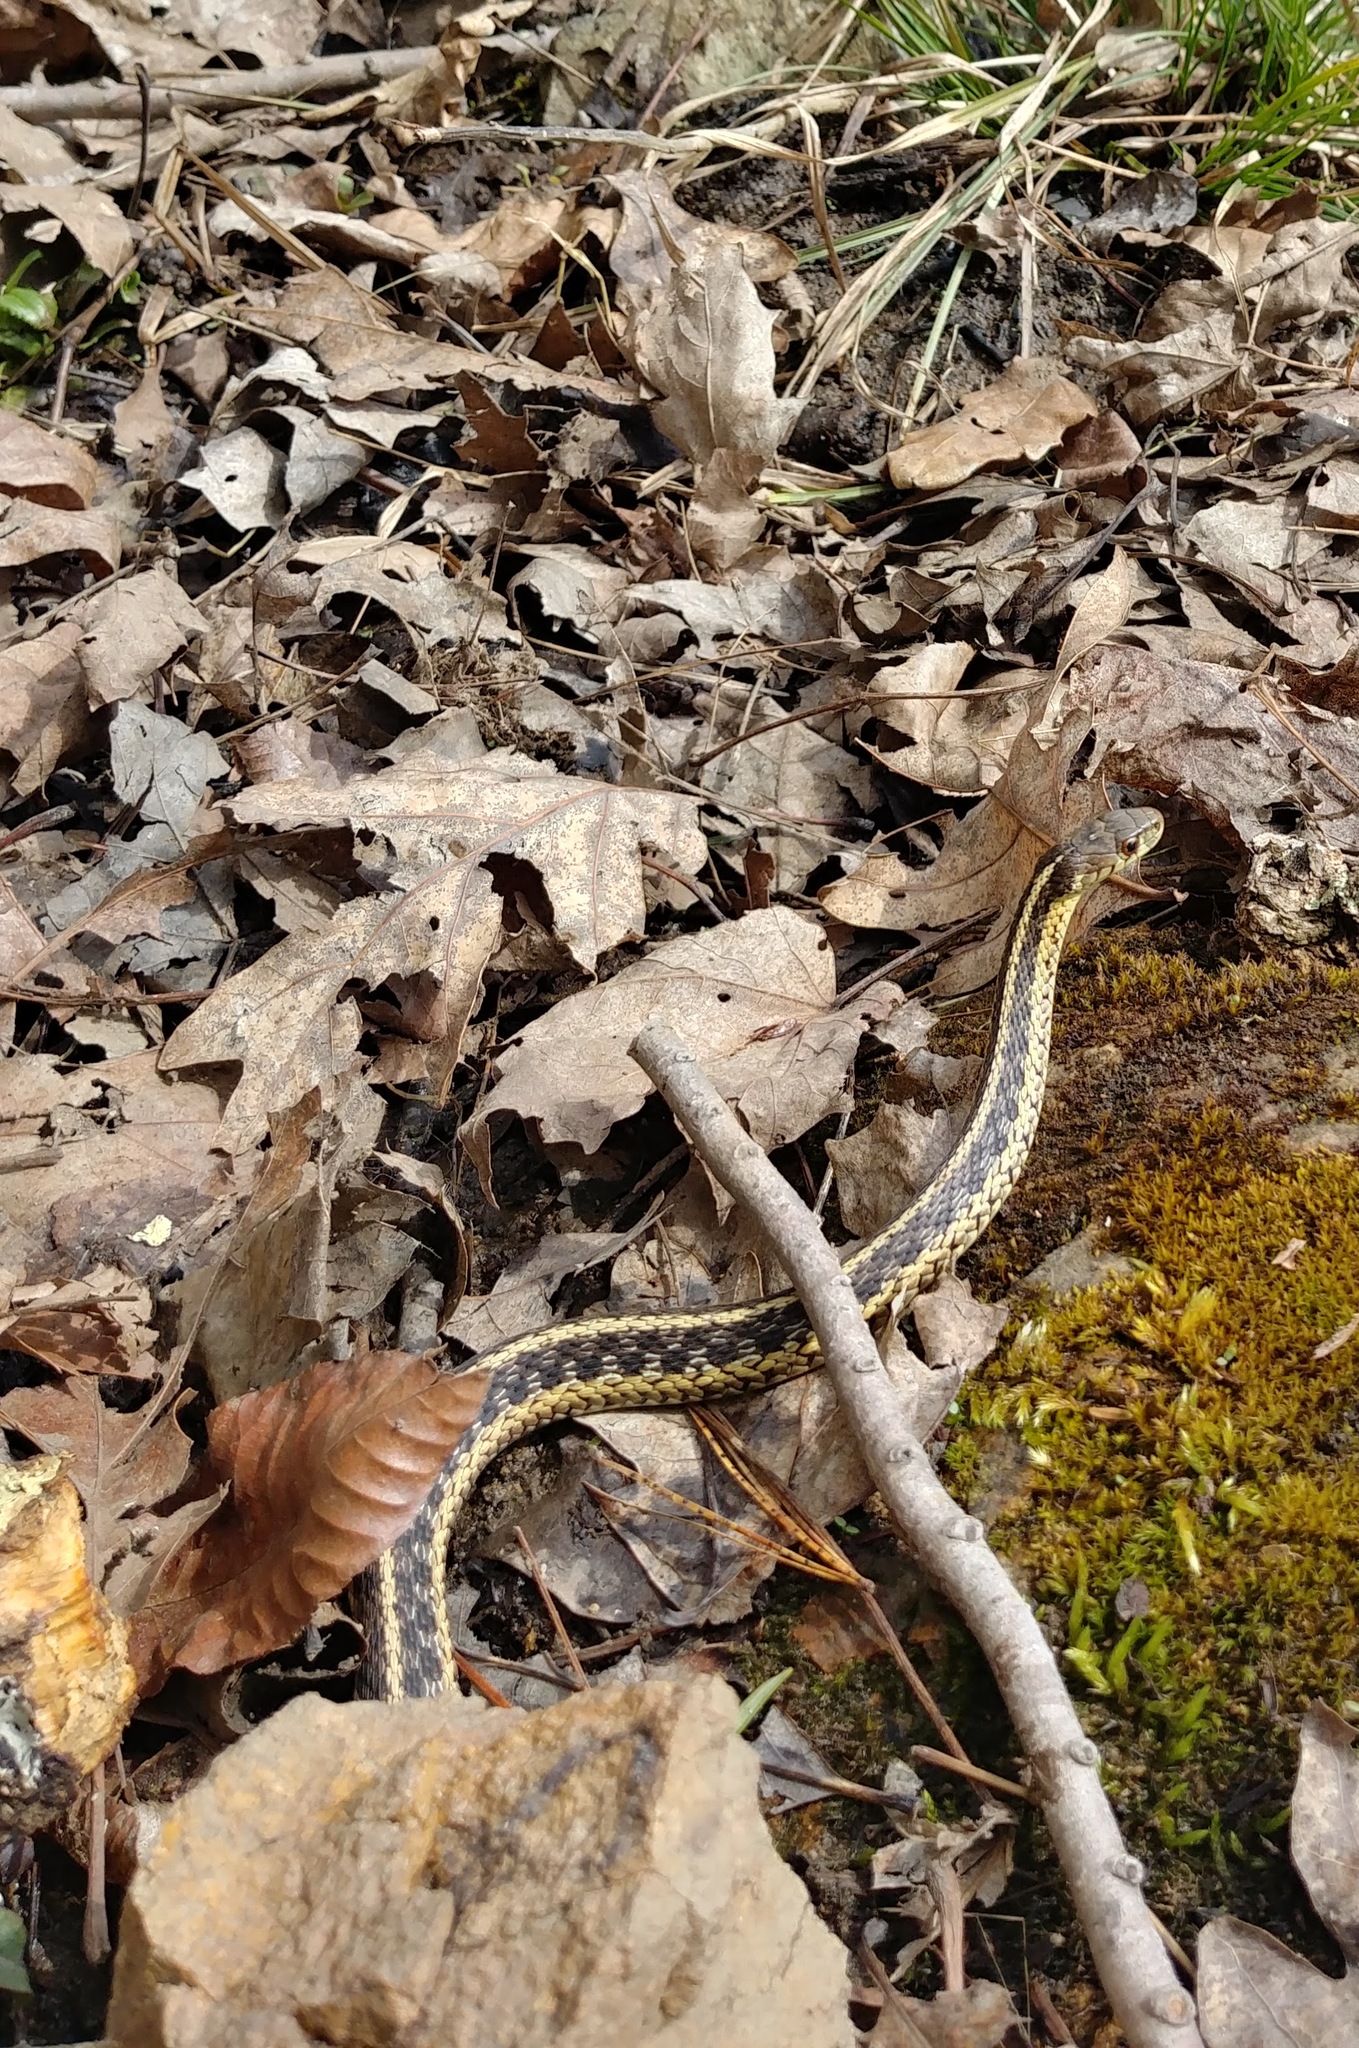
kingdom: Animalia
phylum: Chordata
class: Squamata
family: Colubridae
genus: Thamnophis
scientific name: Thamnophis sirtalis
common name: Common garter snake
